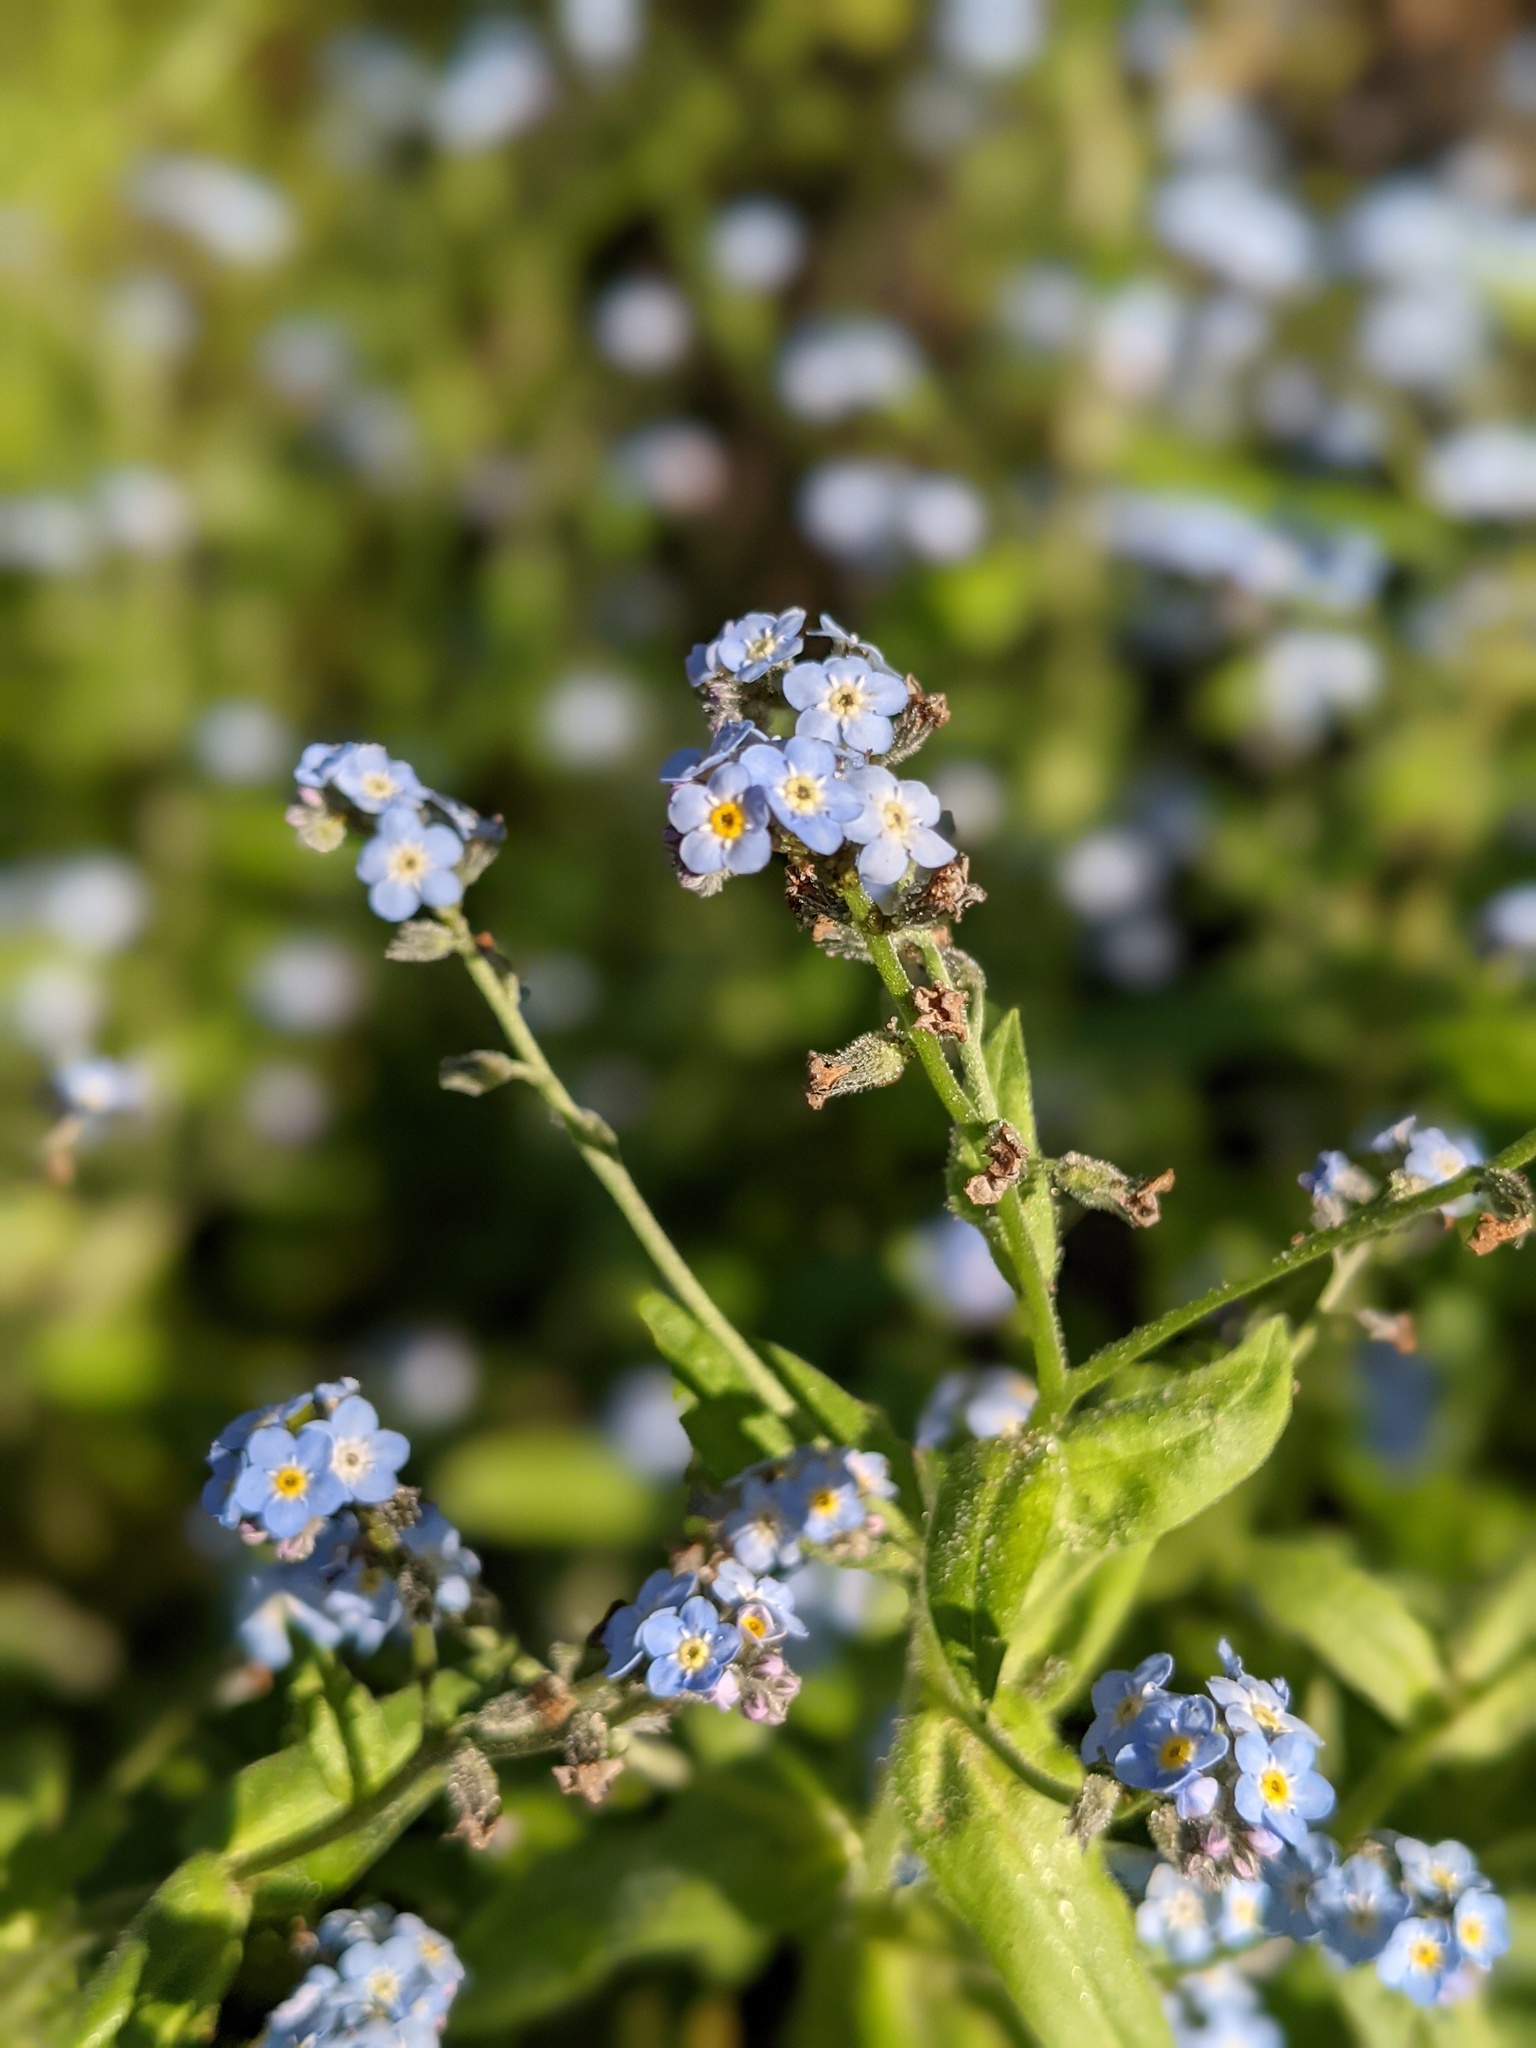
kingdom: Plantae
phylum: Tracheophyta
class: Magnoliopsida
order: Boraginales
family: Boraginaceae
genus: Myosotis
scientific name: Myosotis latifolia
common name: Broadleaf forget-me-not
